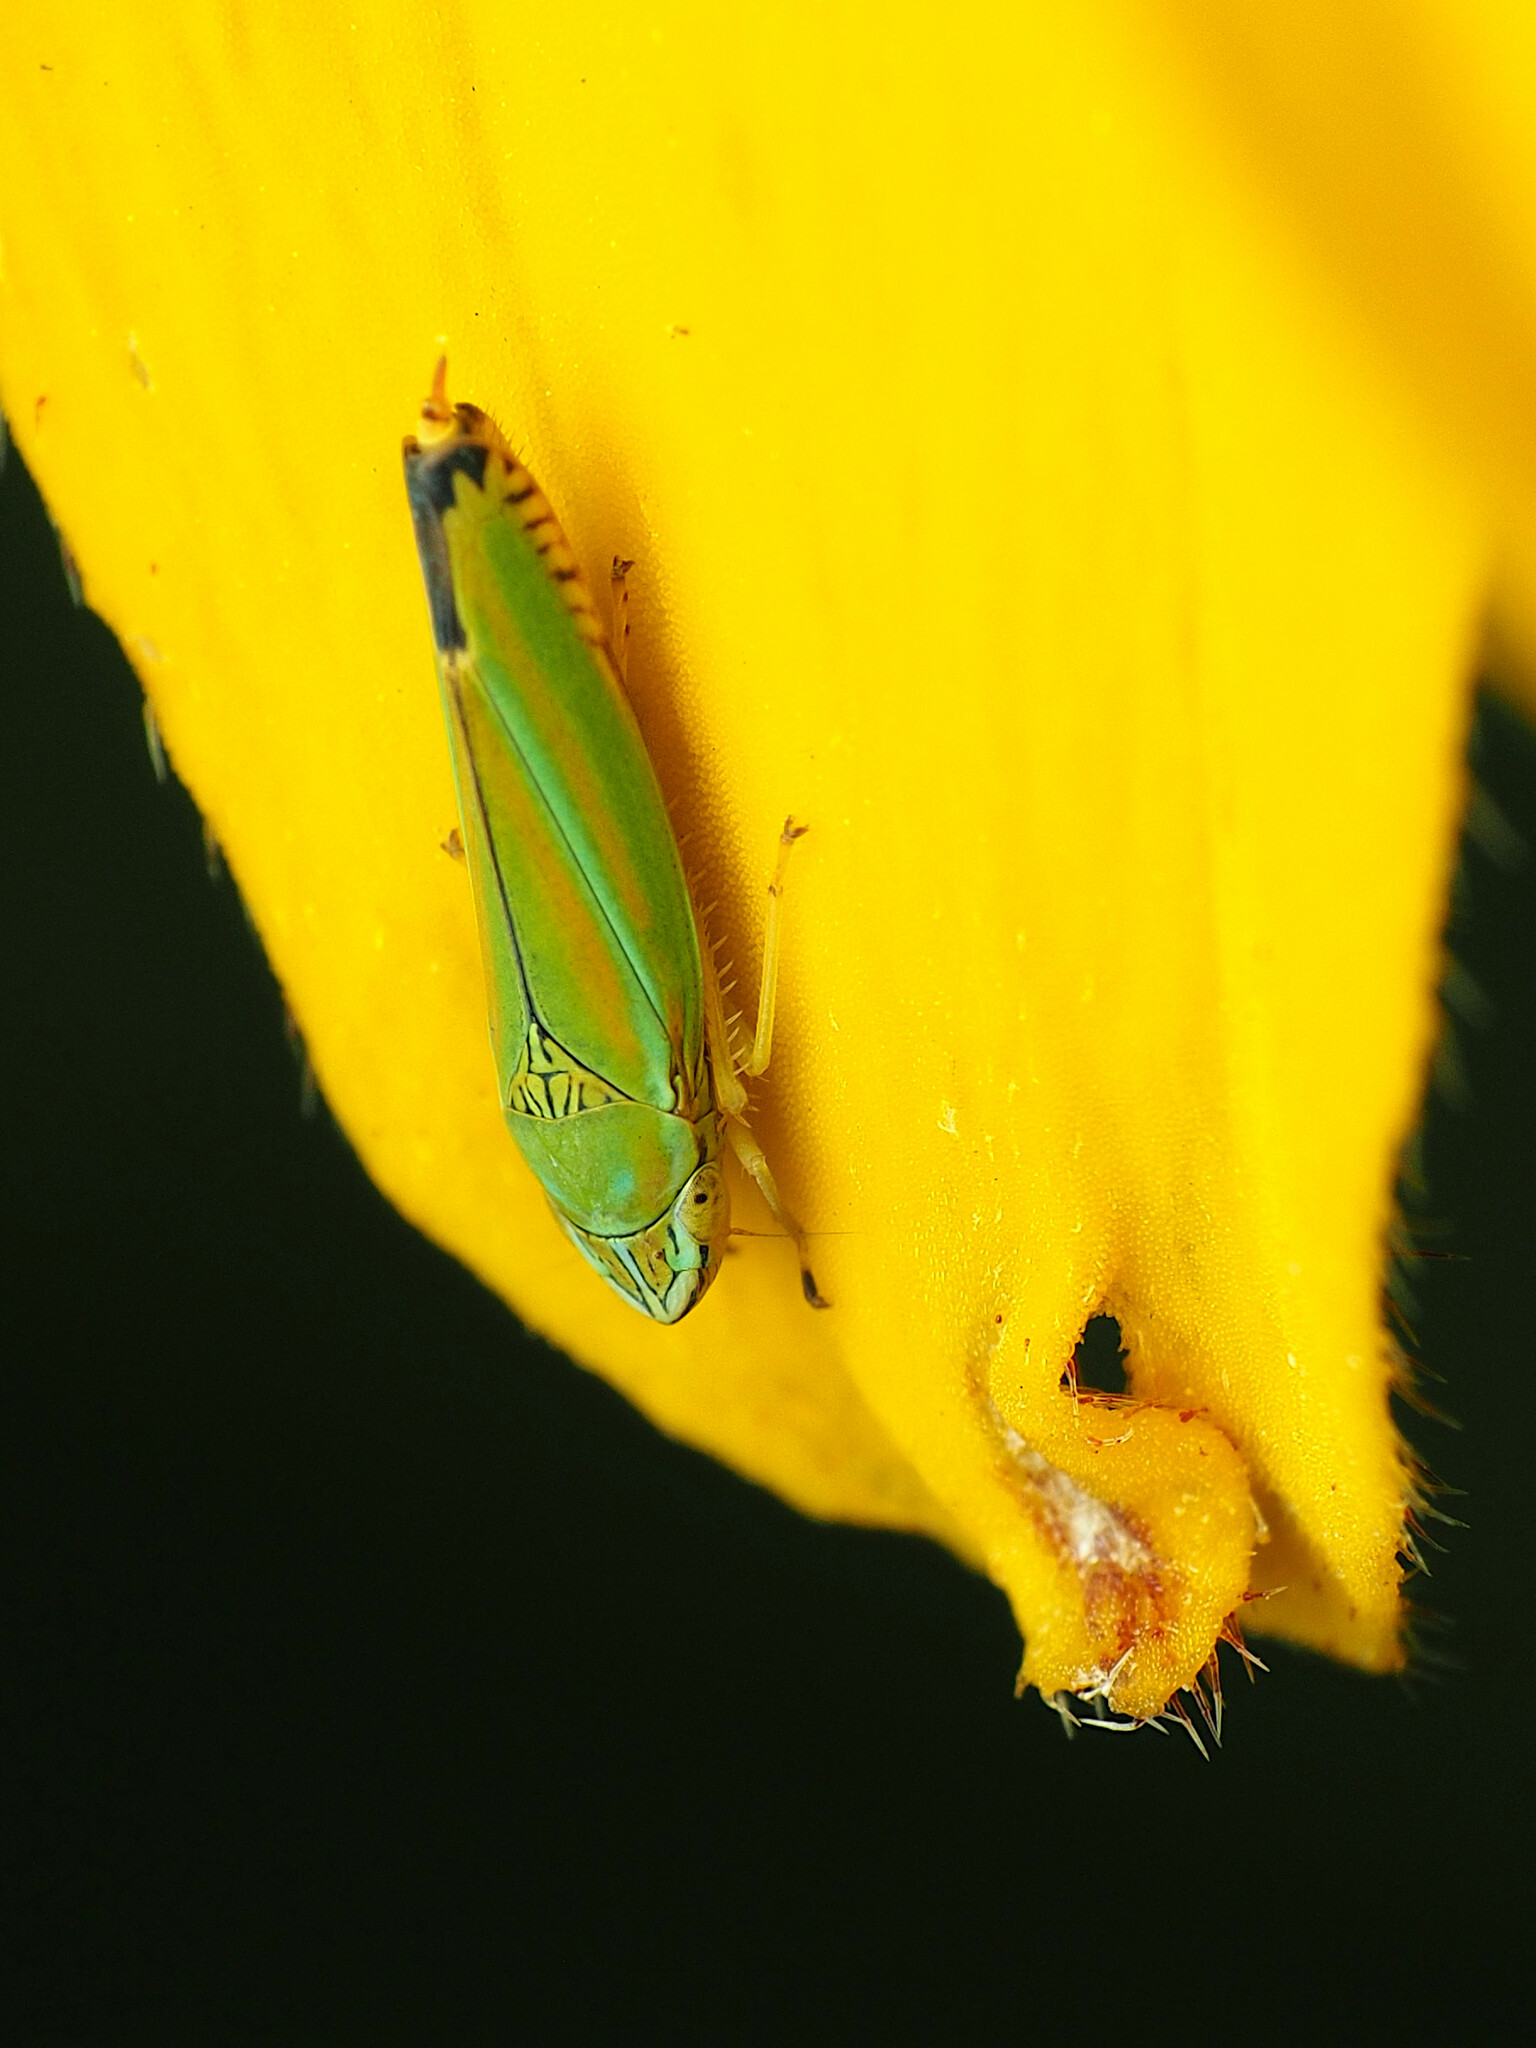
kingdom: Animalia
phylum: Arthropoda
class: Insecta
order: Hemiptera
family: Cicadellidae
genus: Graphocephala
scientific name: Graphocephala versuta
